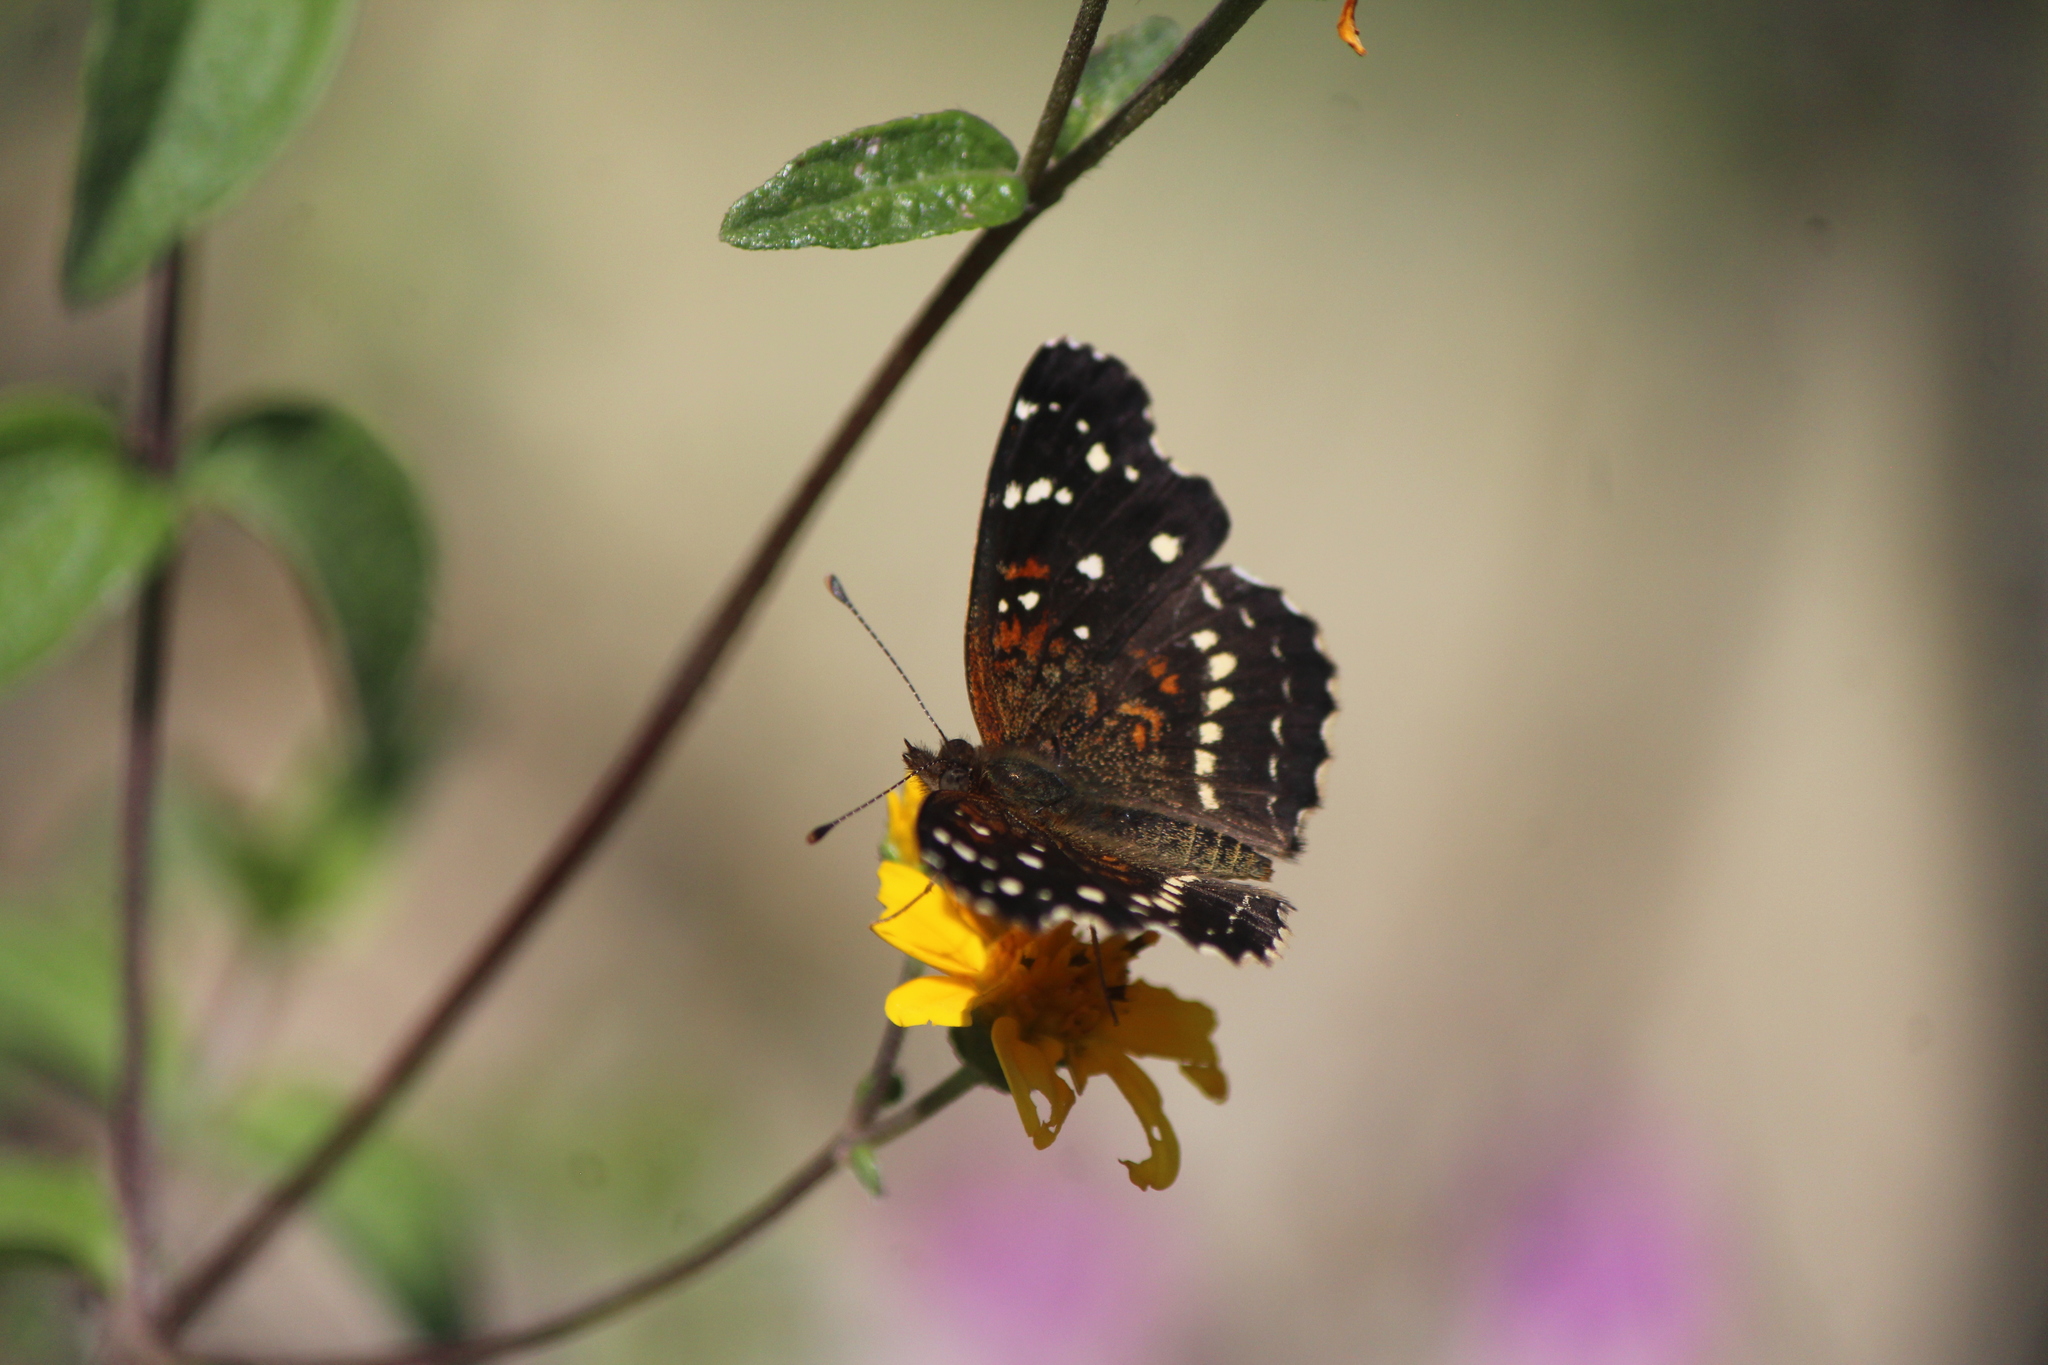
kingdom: Animalia
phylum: Arthropoda
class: Insecta
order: Lepidoptera
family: Nymphalidae
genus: Anthanassa
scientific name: Anthanassa texana
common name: Texan crescent
